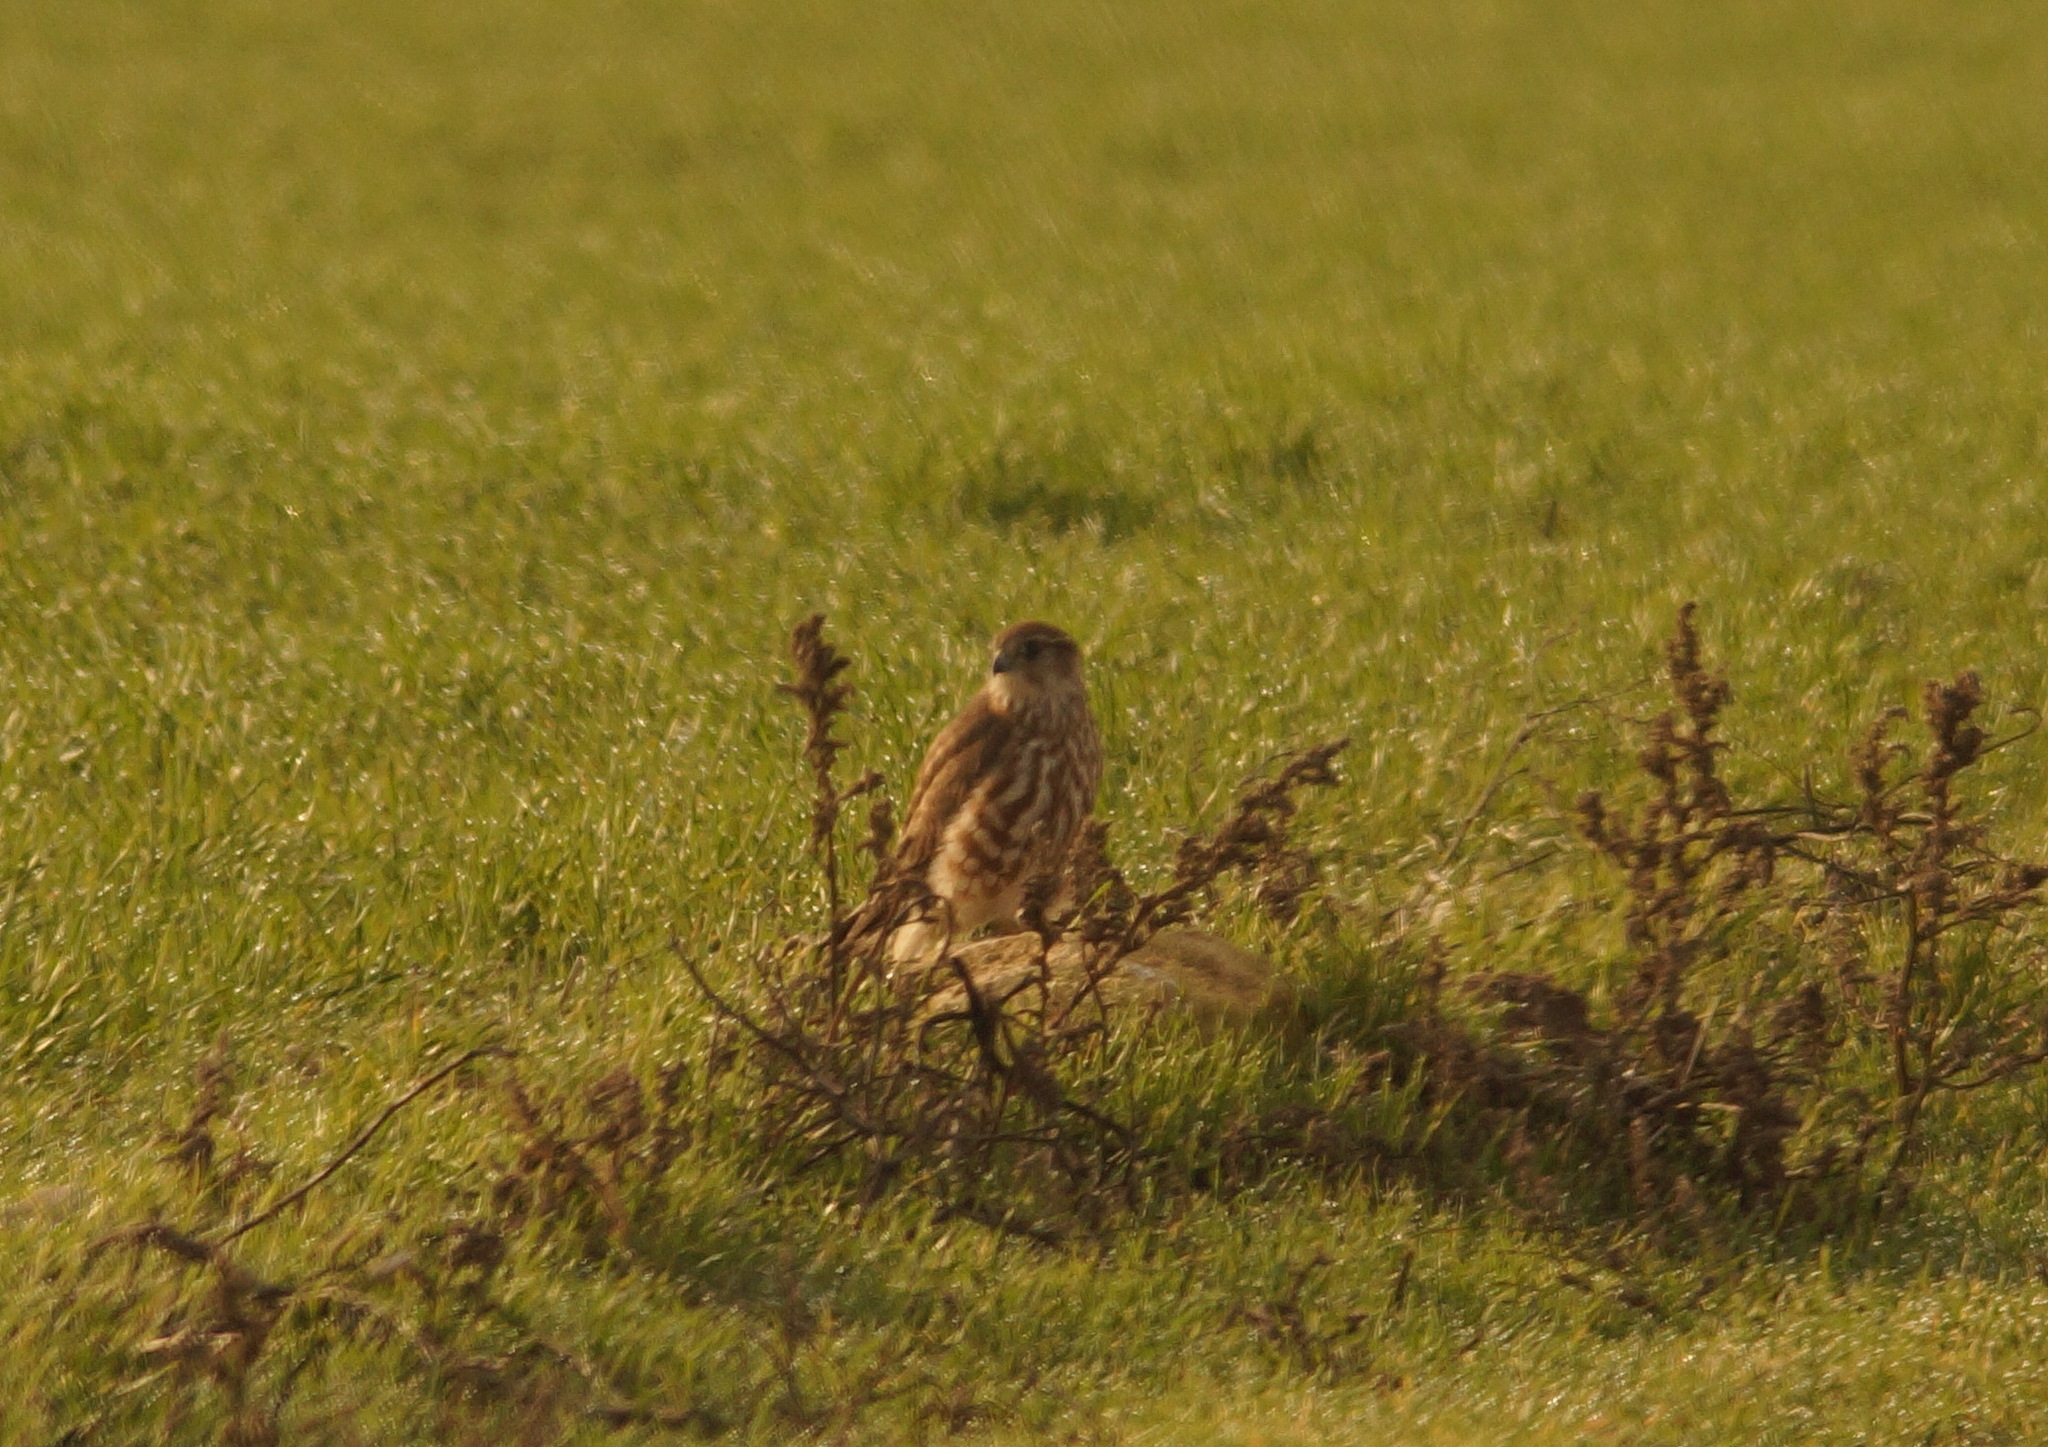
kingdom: Animalia
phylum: Chordata
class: Aves
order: Falconiformes
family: Falconidae
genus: Falco
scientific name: Falco columbarius
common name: Merlin
